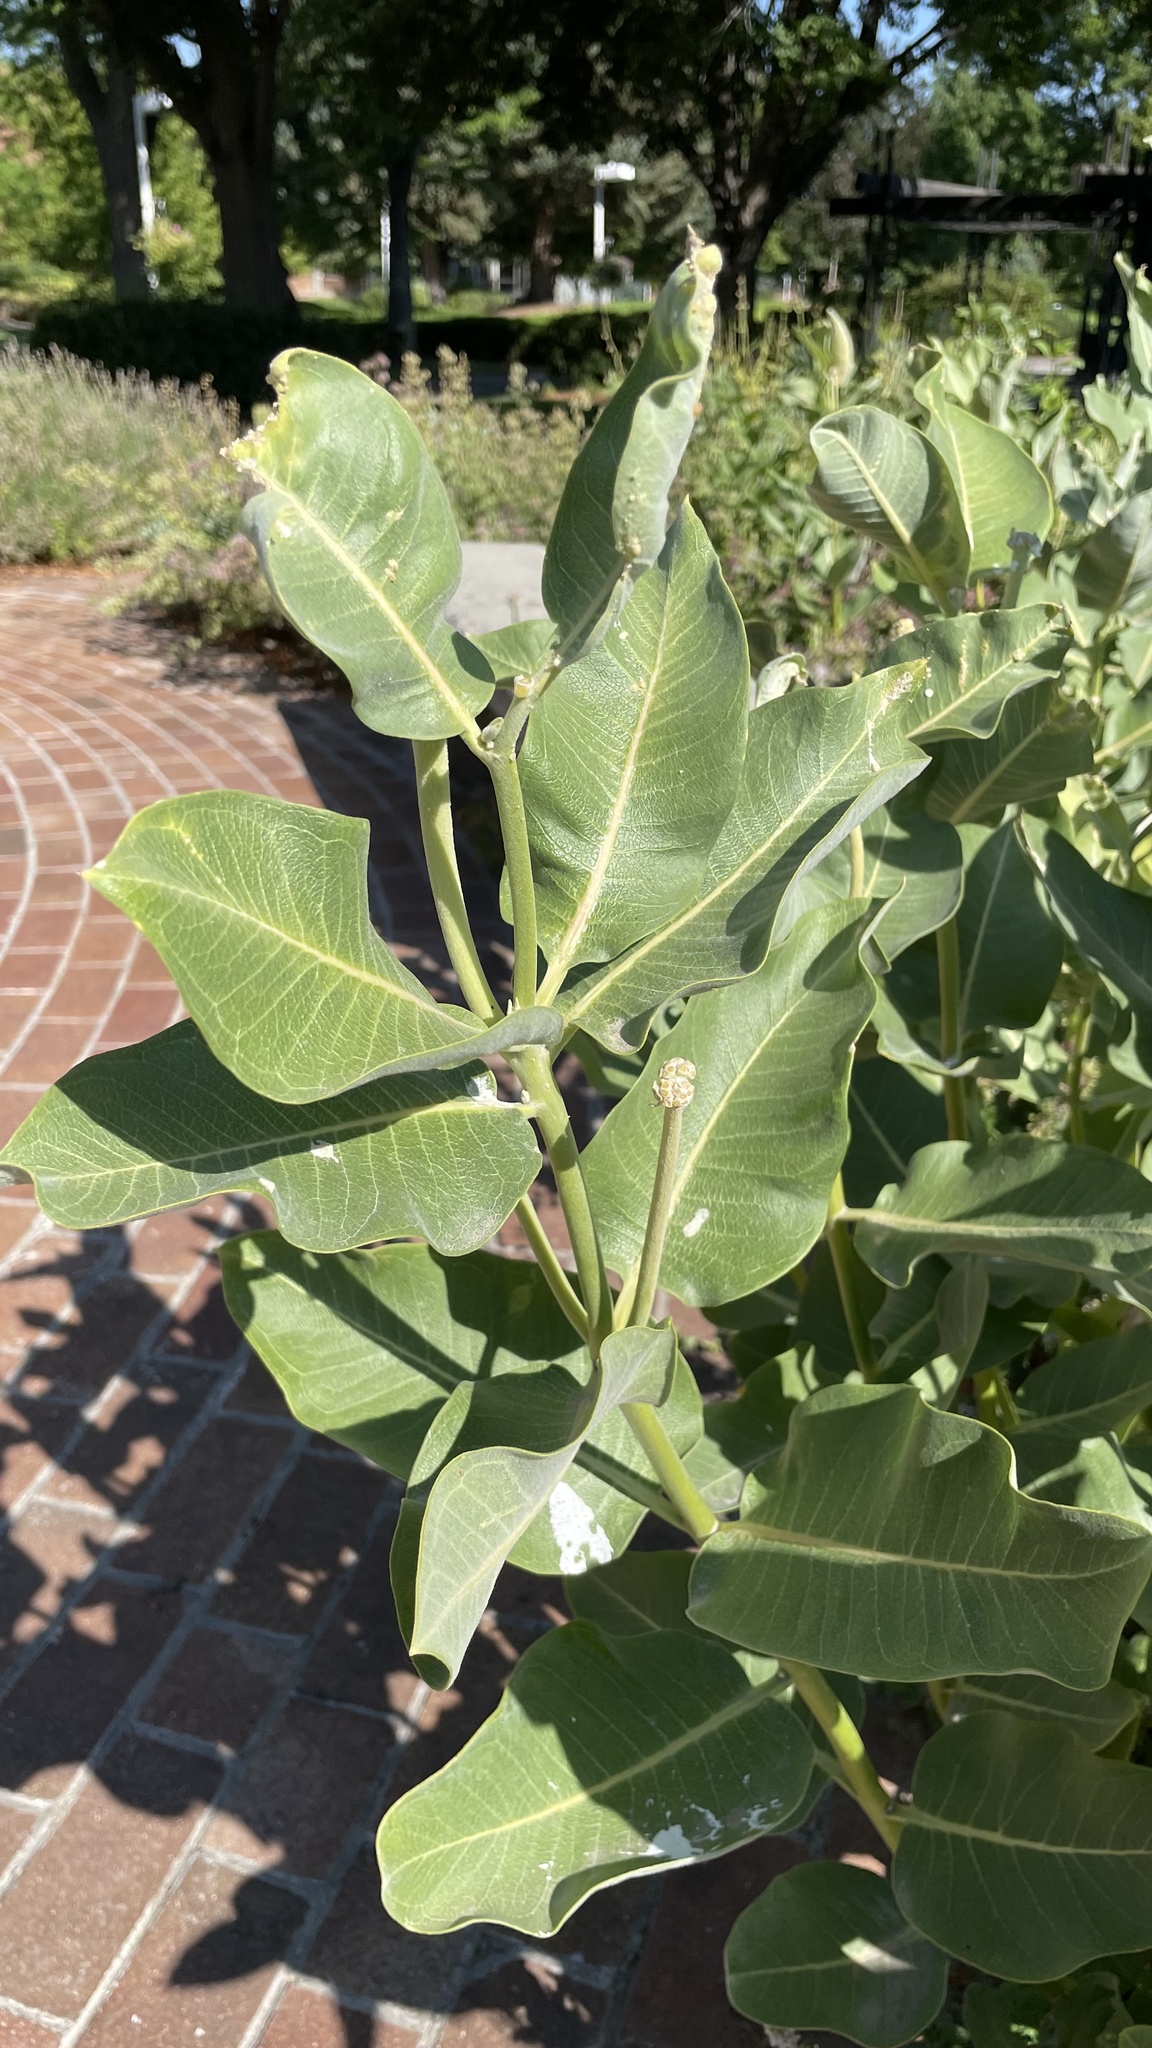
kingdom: Plantae
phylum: Tracheophyta
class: Magnoliopsida
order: Gentianales
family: Apocynaceae
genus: Asclepias
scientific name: Asclepias speciosa
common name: Showy milkweed
